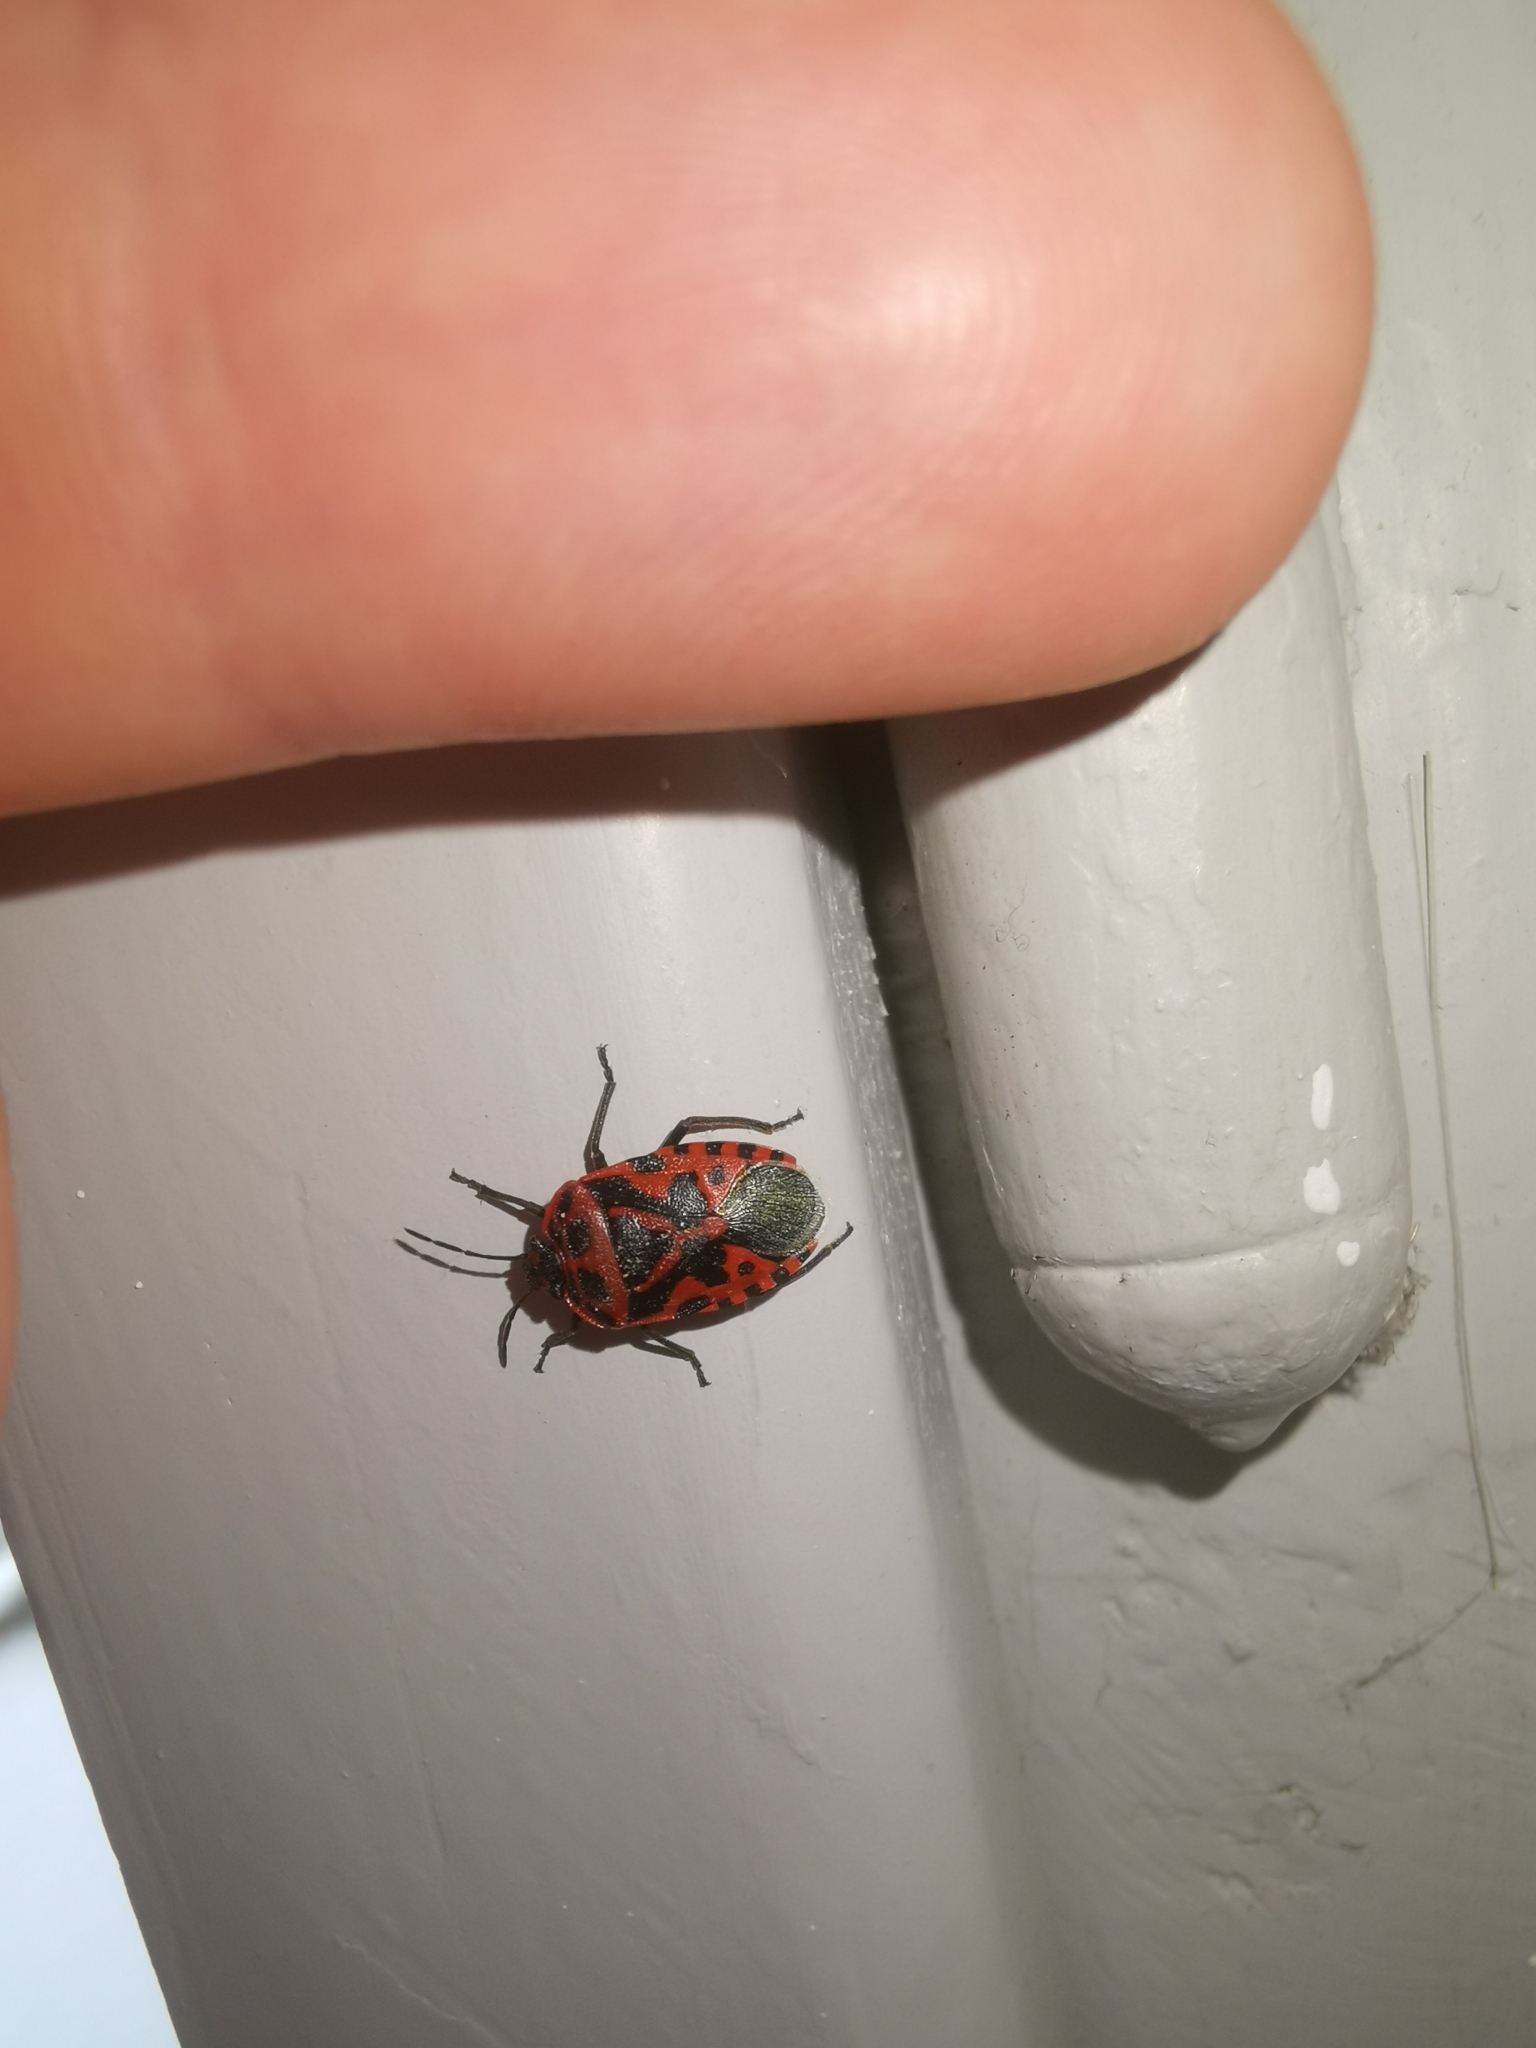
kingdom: Animalia
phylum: Arthropoda
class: Insecta
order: Hemiptera
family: Pentatomidae
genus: Eurydema
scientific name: Eurydema ventralis
